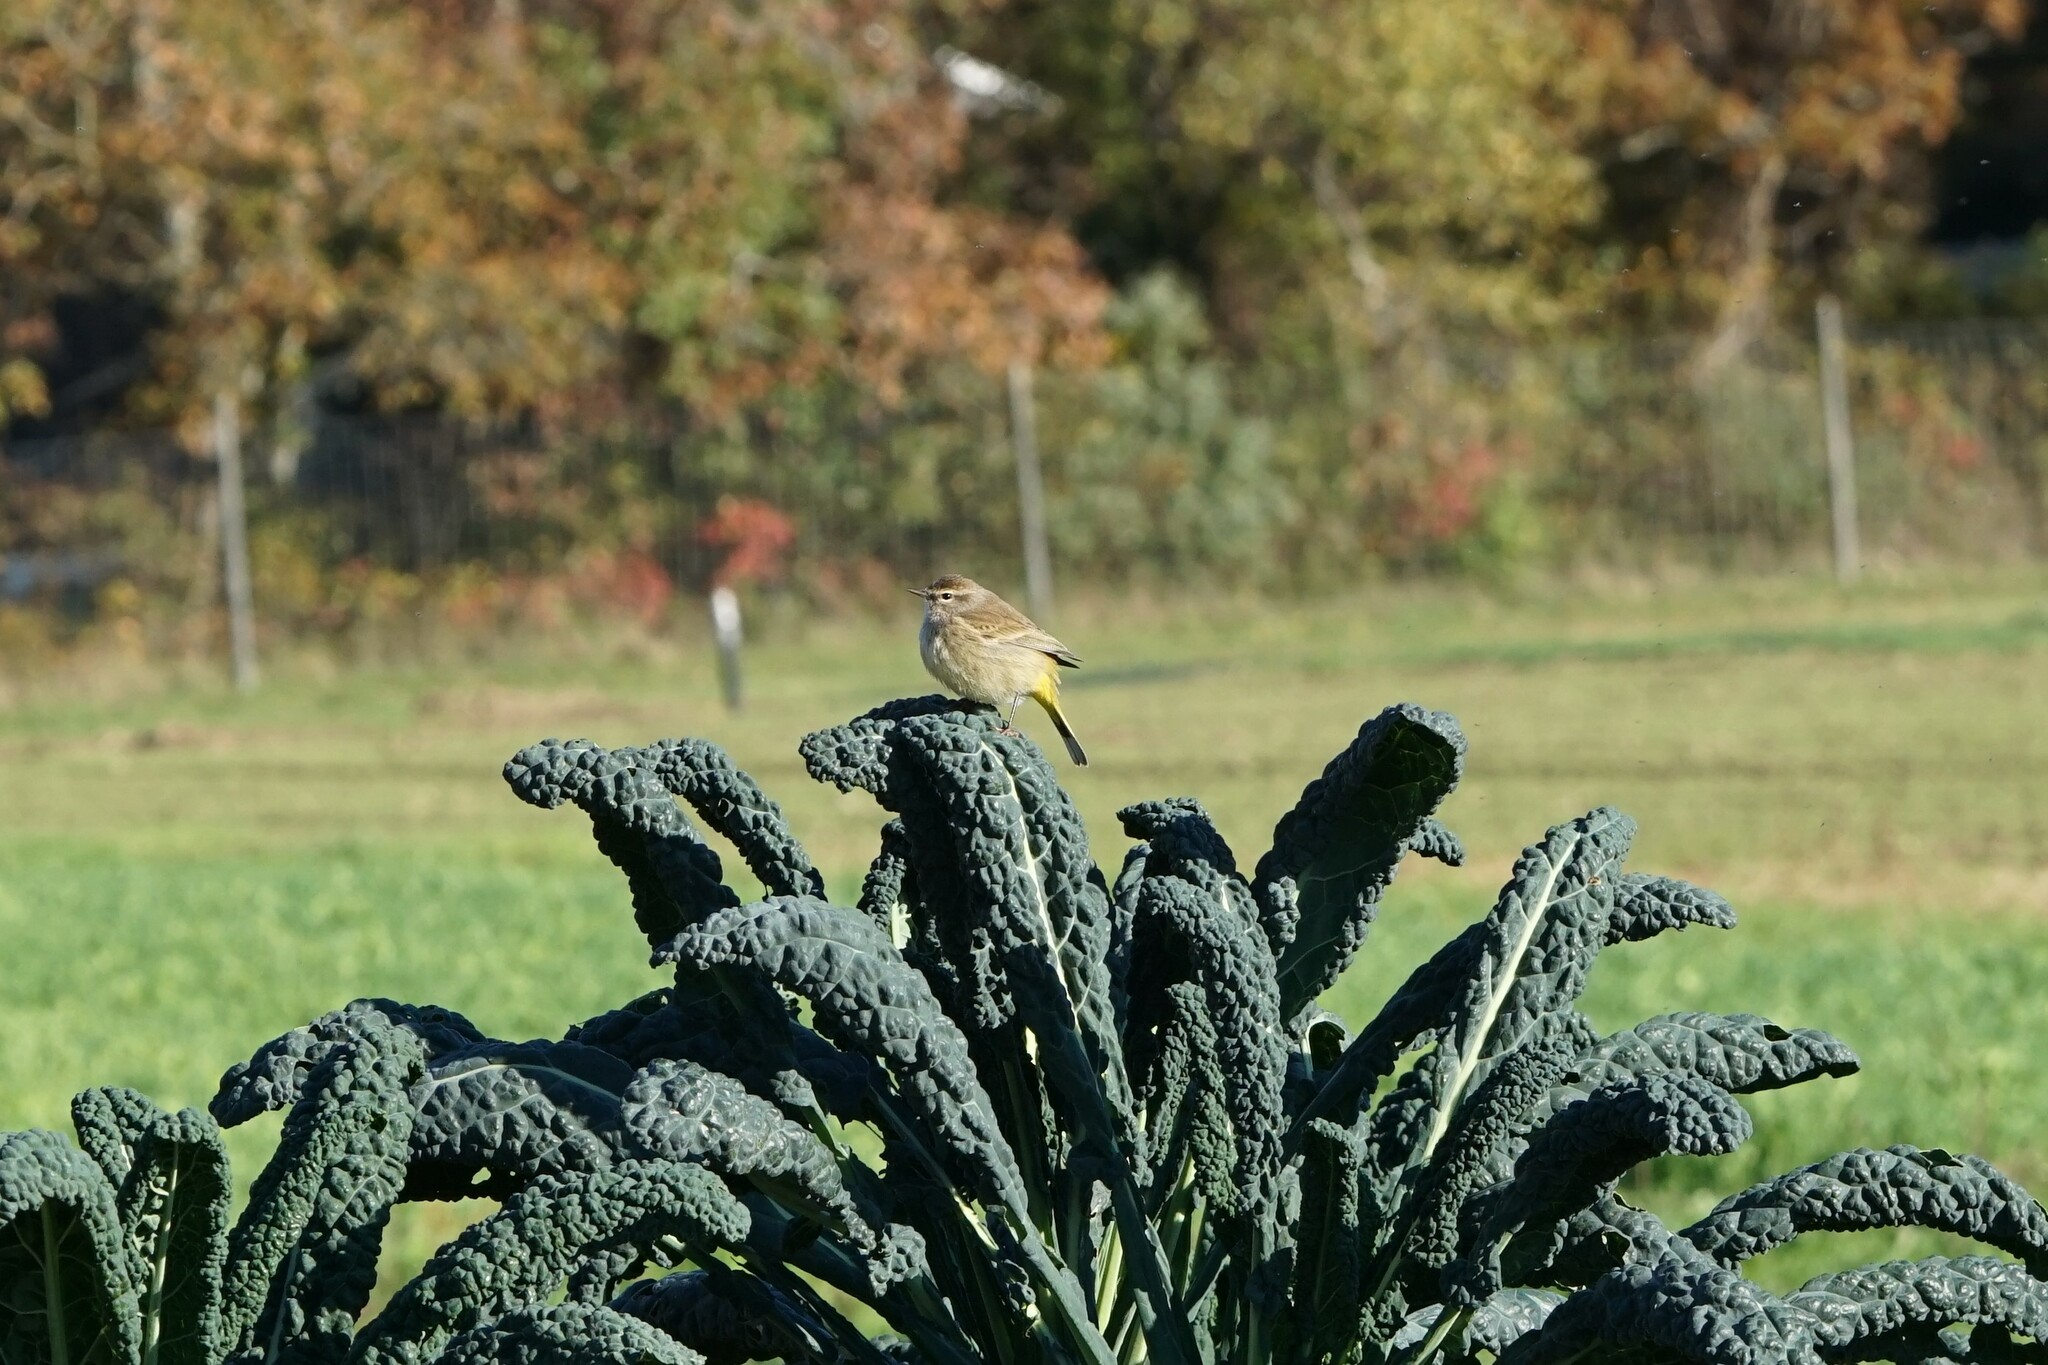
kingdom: Animalia
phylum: Chordata
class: Aves
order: Passeriformes
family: Parulidae
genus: Setophaga
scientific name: Setophaga palmarum
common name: Palm warbler
